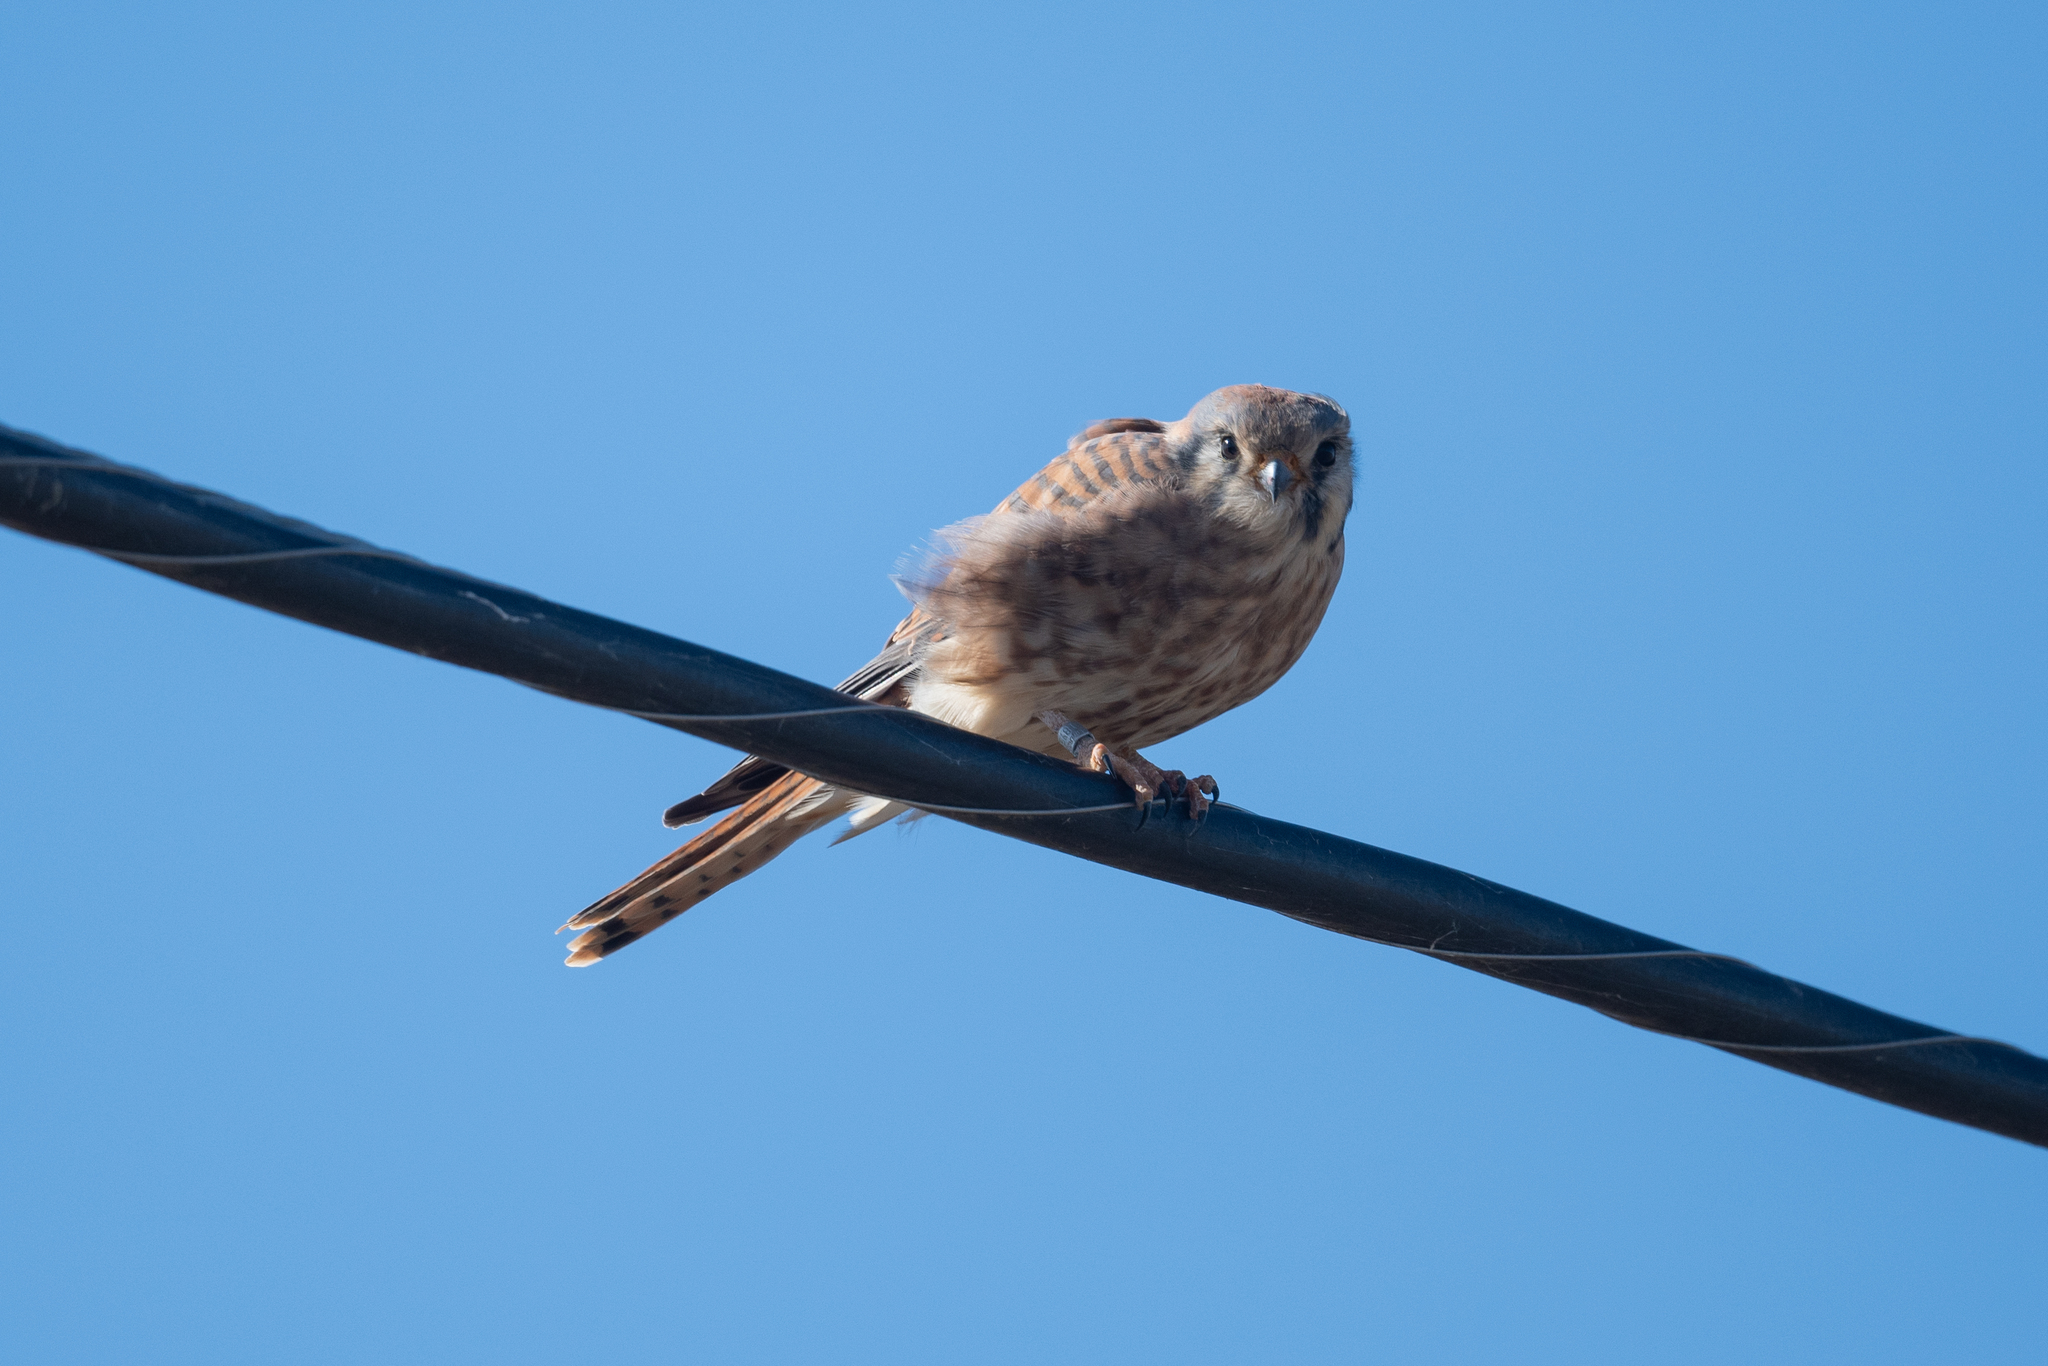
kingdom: Animalia
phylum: Chordata
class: Aves
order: Falconiformes
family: Falconidae
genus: Falco
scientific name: Falco sparverius
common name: American kestrel
